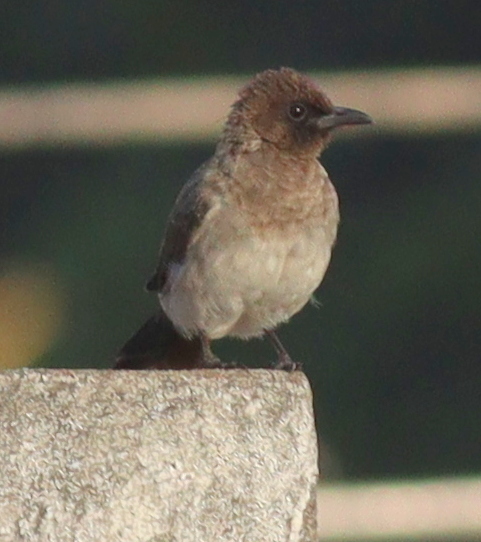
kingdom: Animalia
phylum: Chordata
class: Aves
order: Passeriformes
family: Pycnonotidae
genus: Pycnonotus
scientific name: Pycnonotus barbatus
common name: Common bulbul
